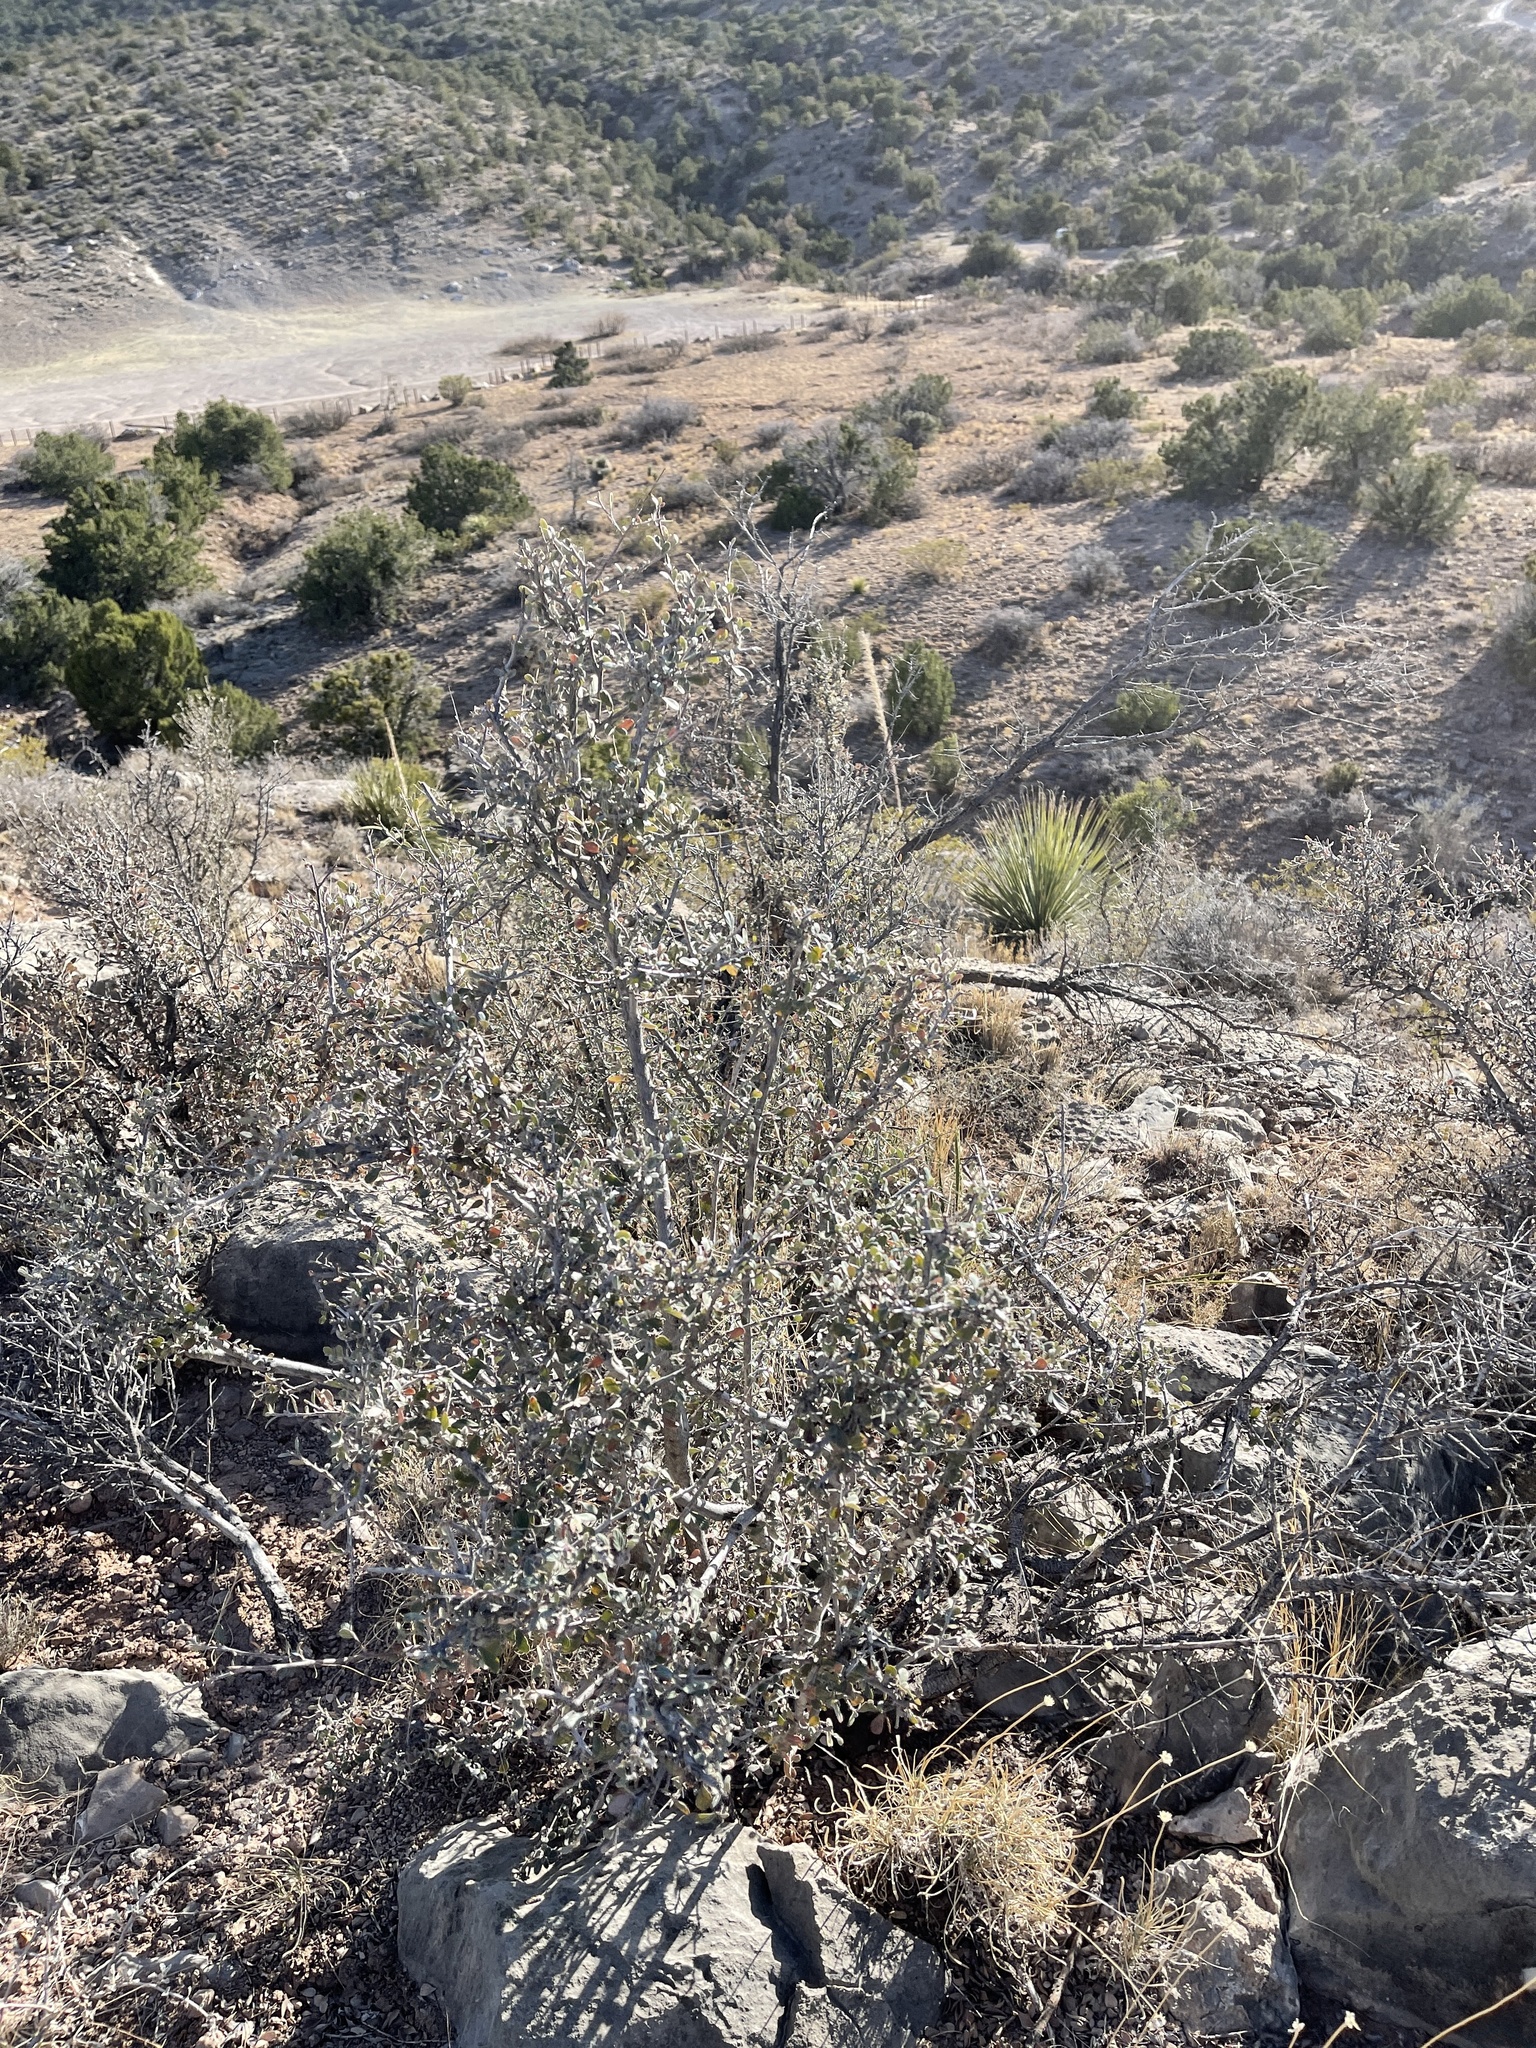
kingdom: Plantae
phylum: Tracheophyta
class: Magnoliopsida
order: Rosales
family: Rosaceae
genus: Cercocarpus
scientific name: Cercocarpus breviflorus
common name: Wright's mountain-mahogany
